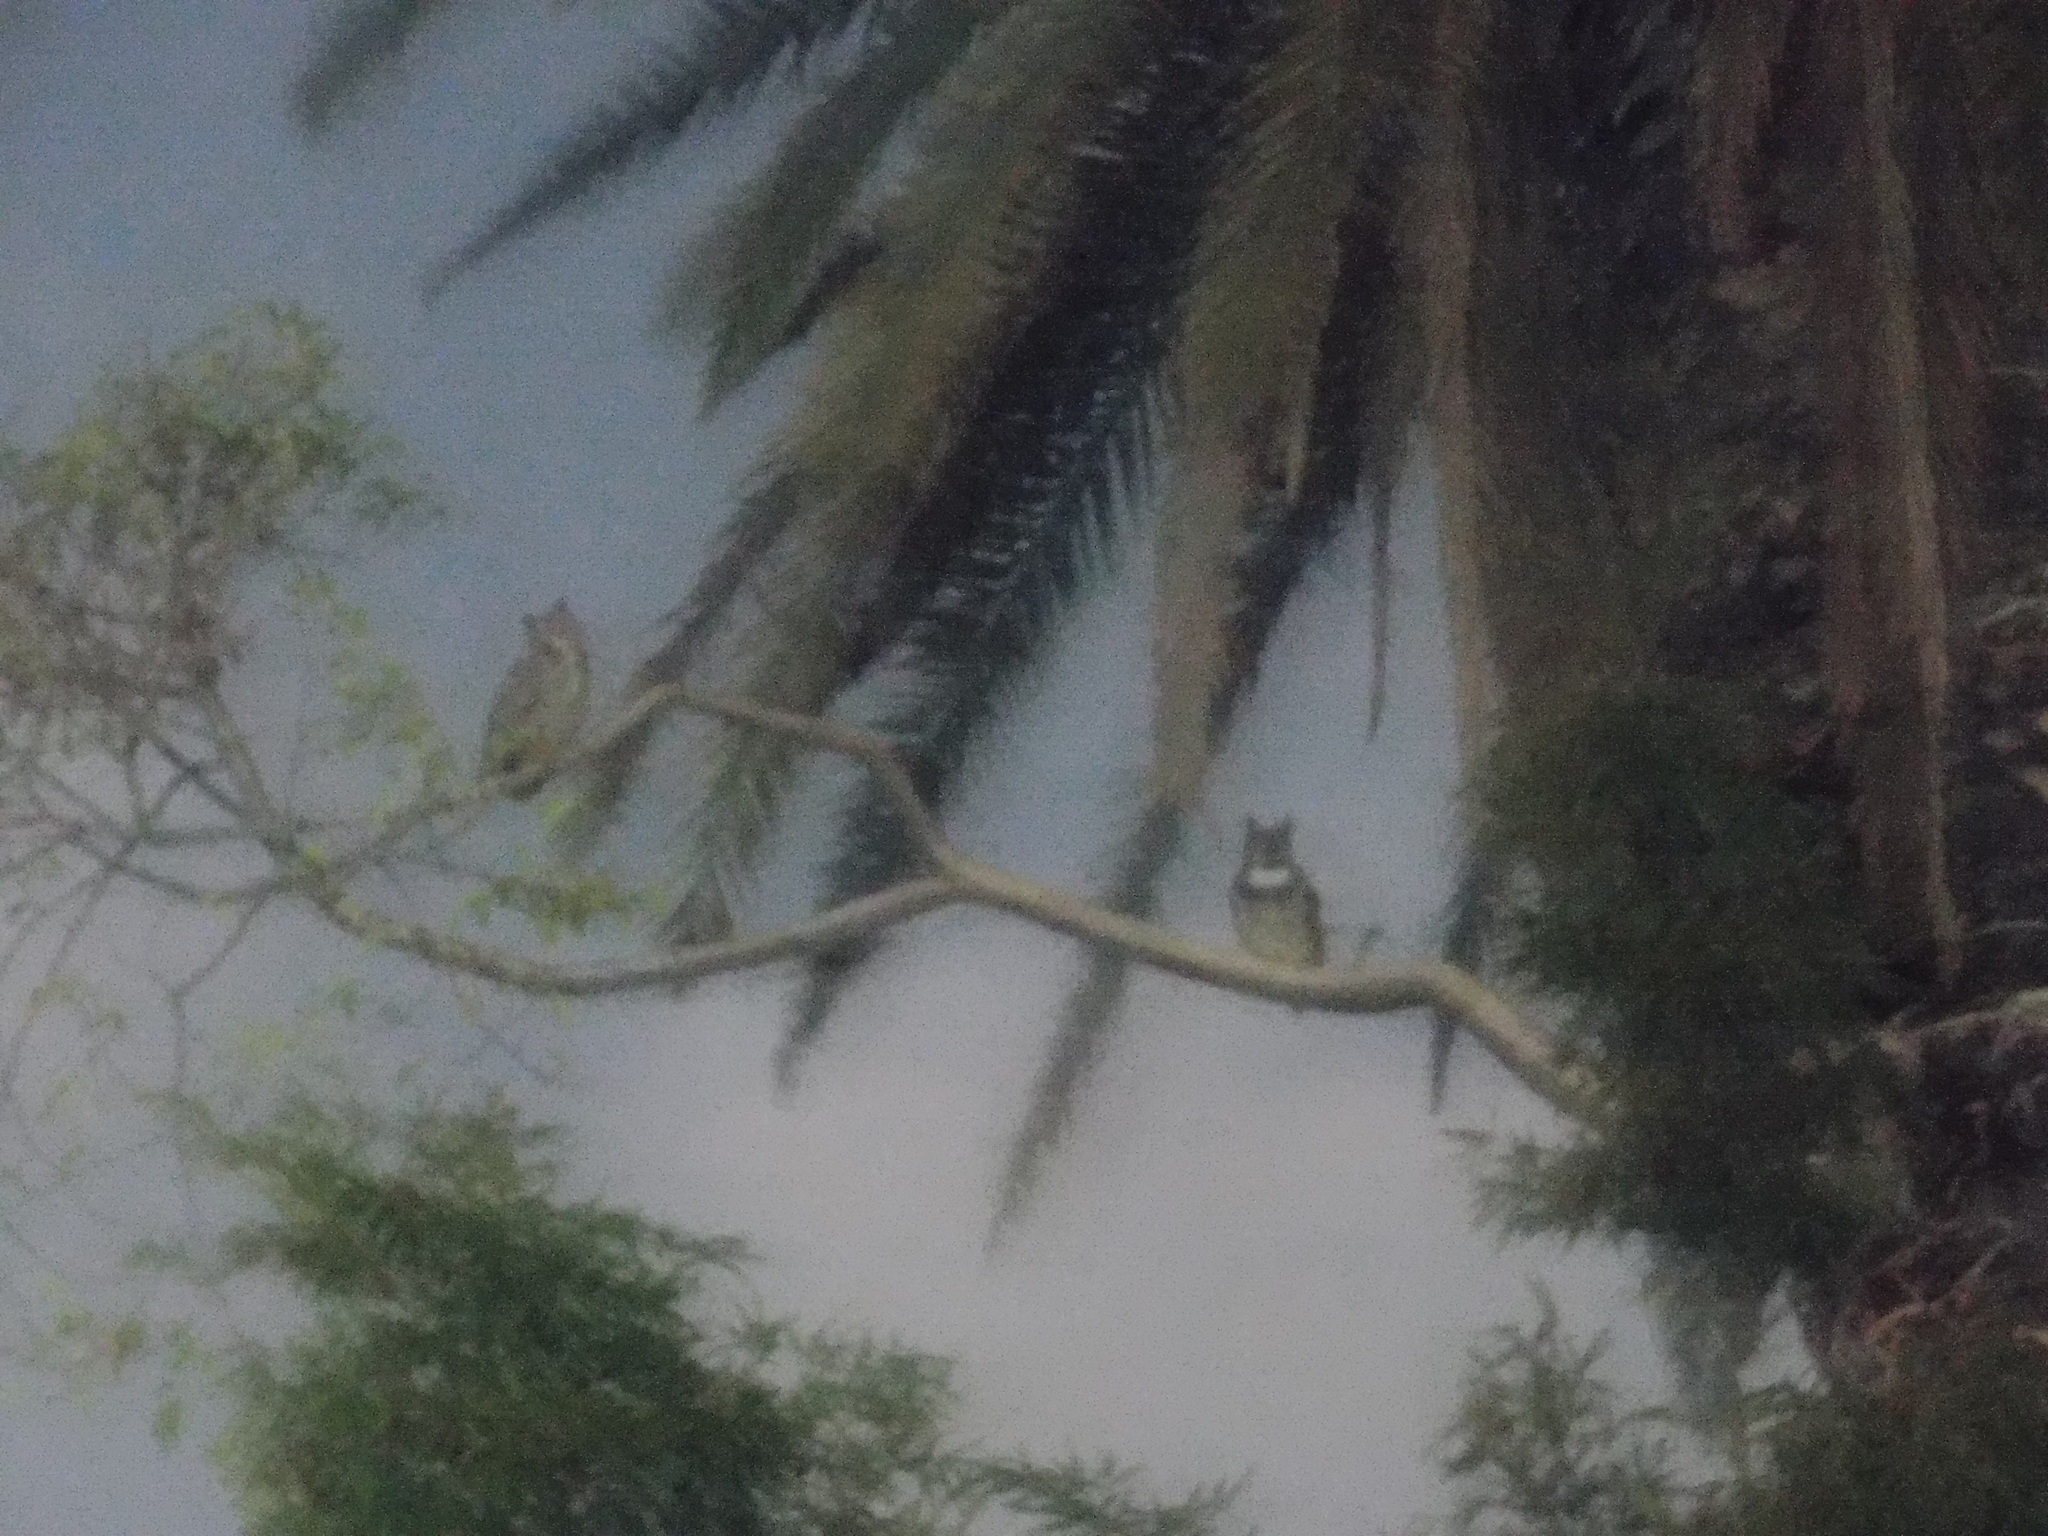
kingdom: Animalia
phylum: Chordata
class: Aves
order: Strigiformes
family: Strigidae
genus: Bubo
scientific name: Bubo virginianus
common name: Great horned owl
